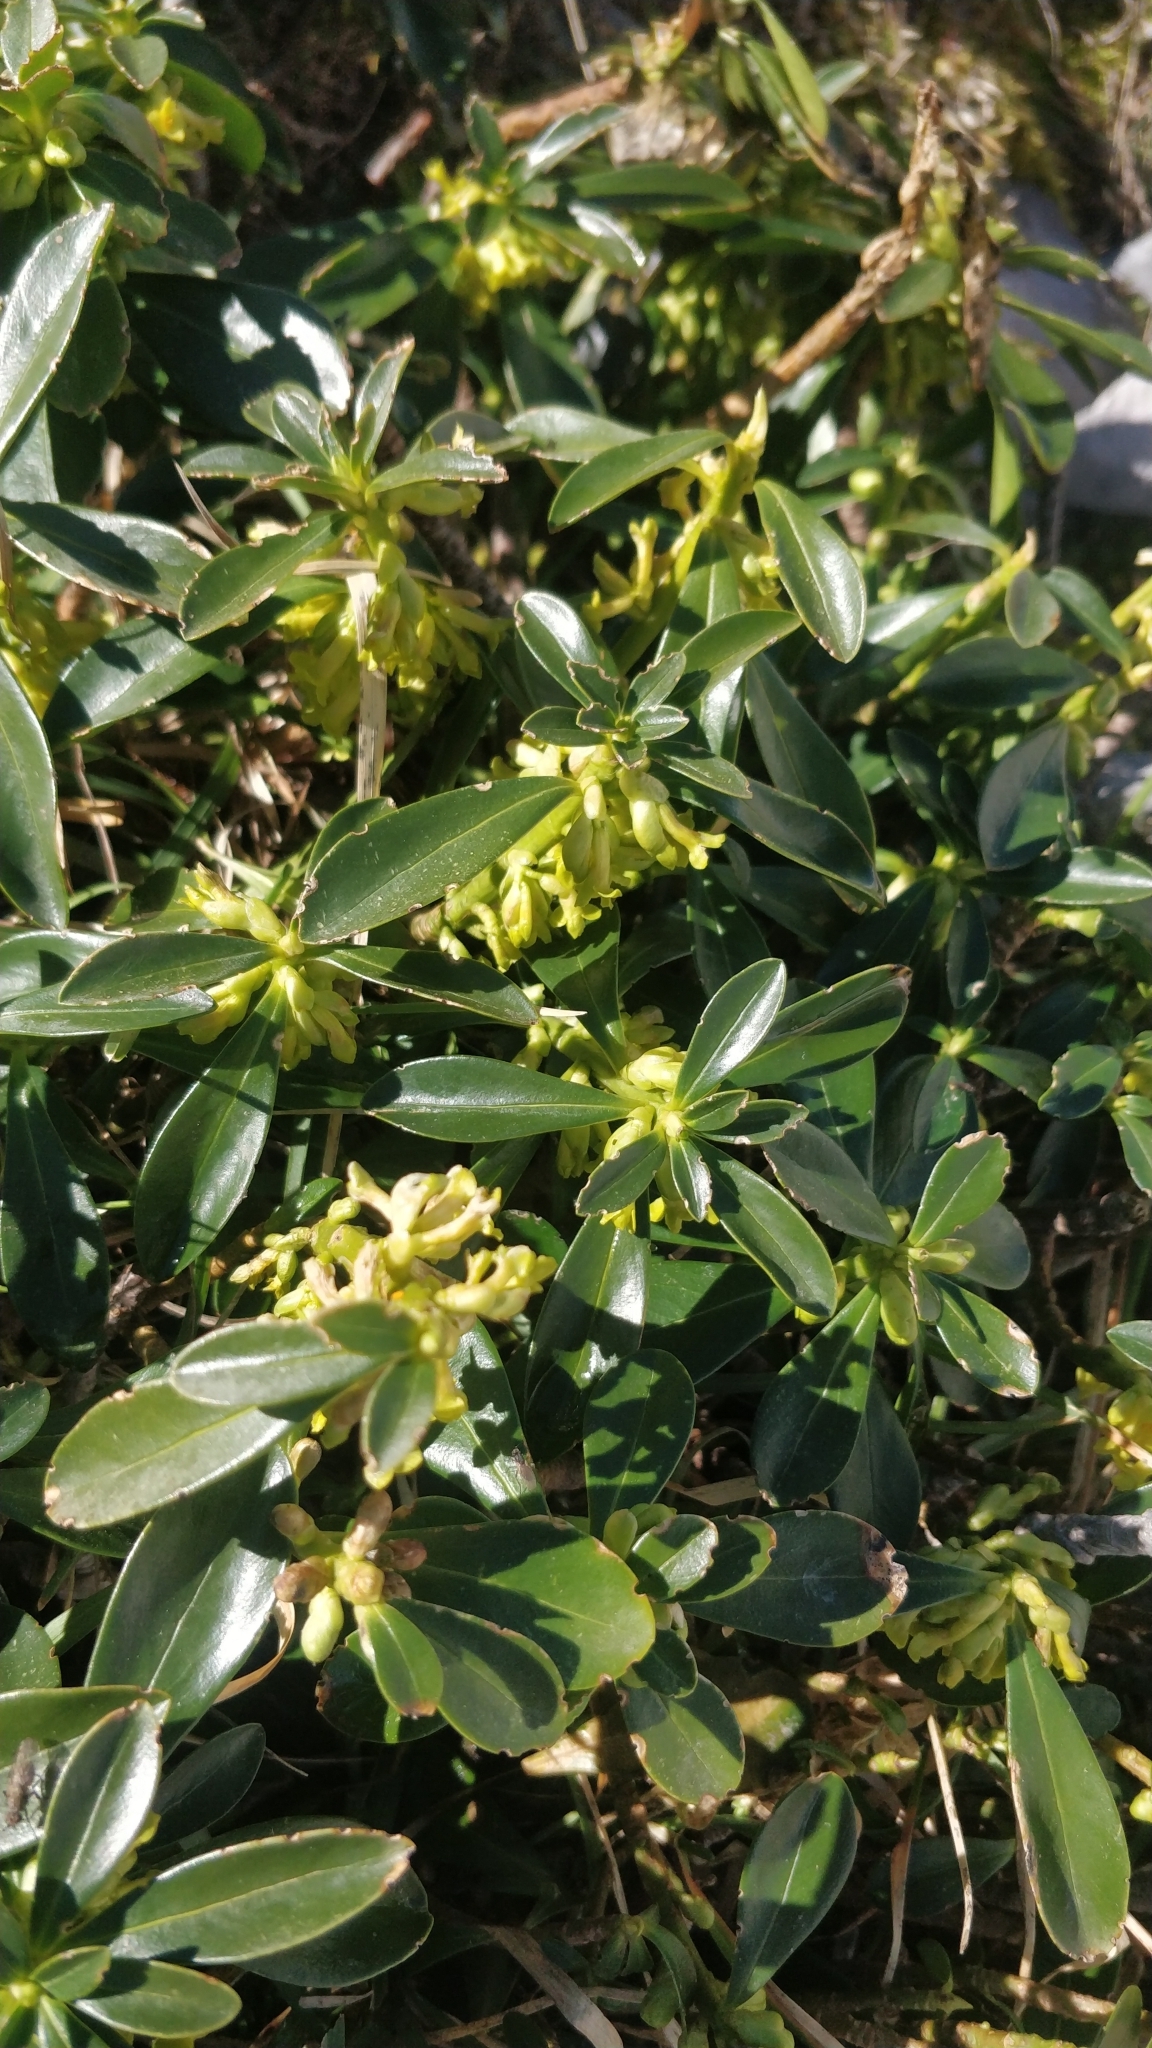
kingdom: Plantae
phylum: Tracheophyta
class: Magnoliopsida
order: Malvales
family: Thymelaeaceae
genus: Daphne
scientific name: Daphne laureola
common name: Spurge-laurel
